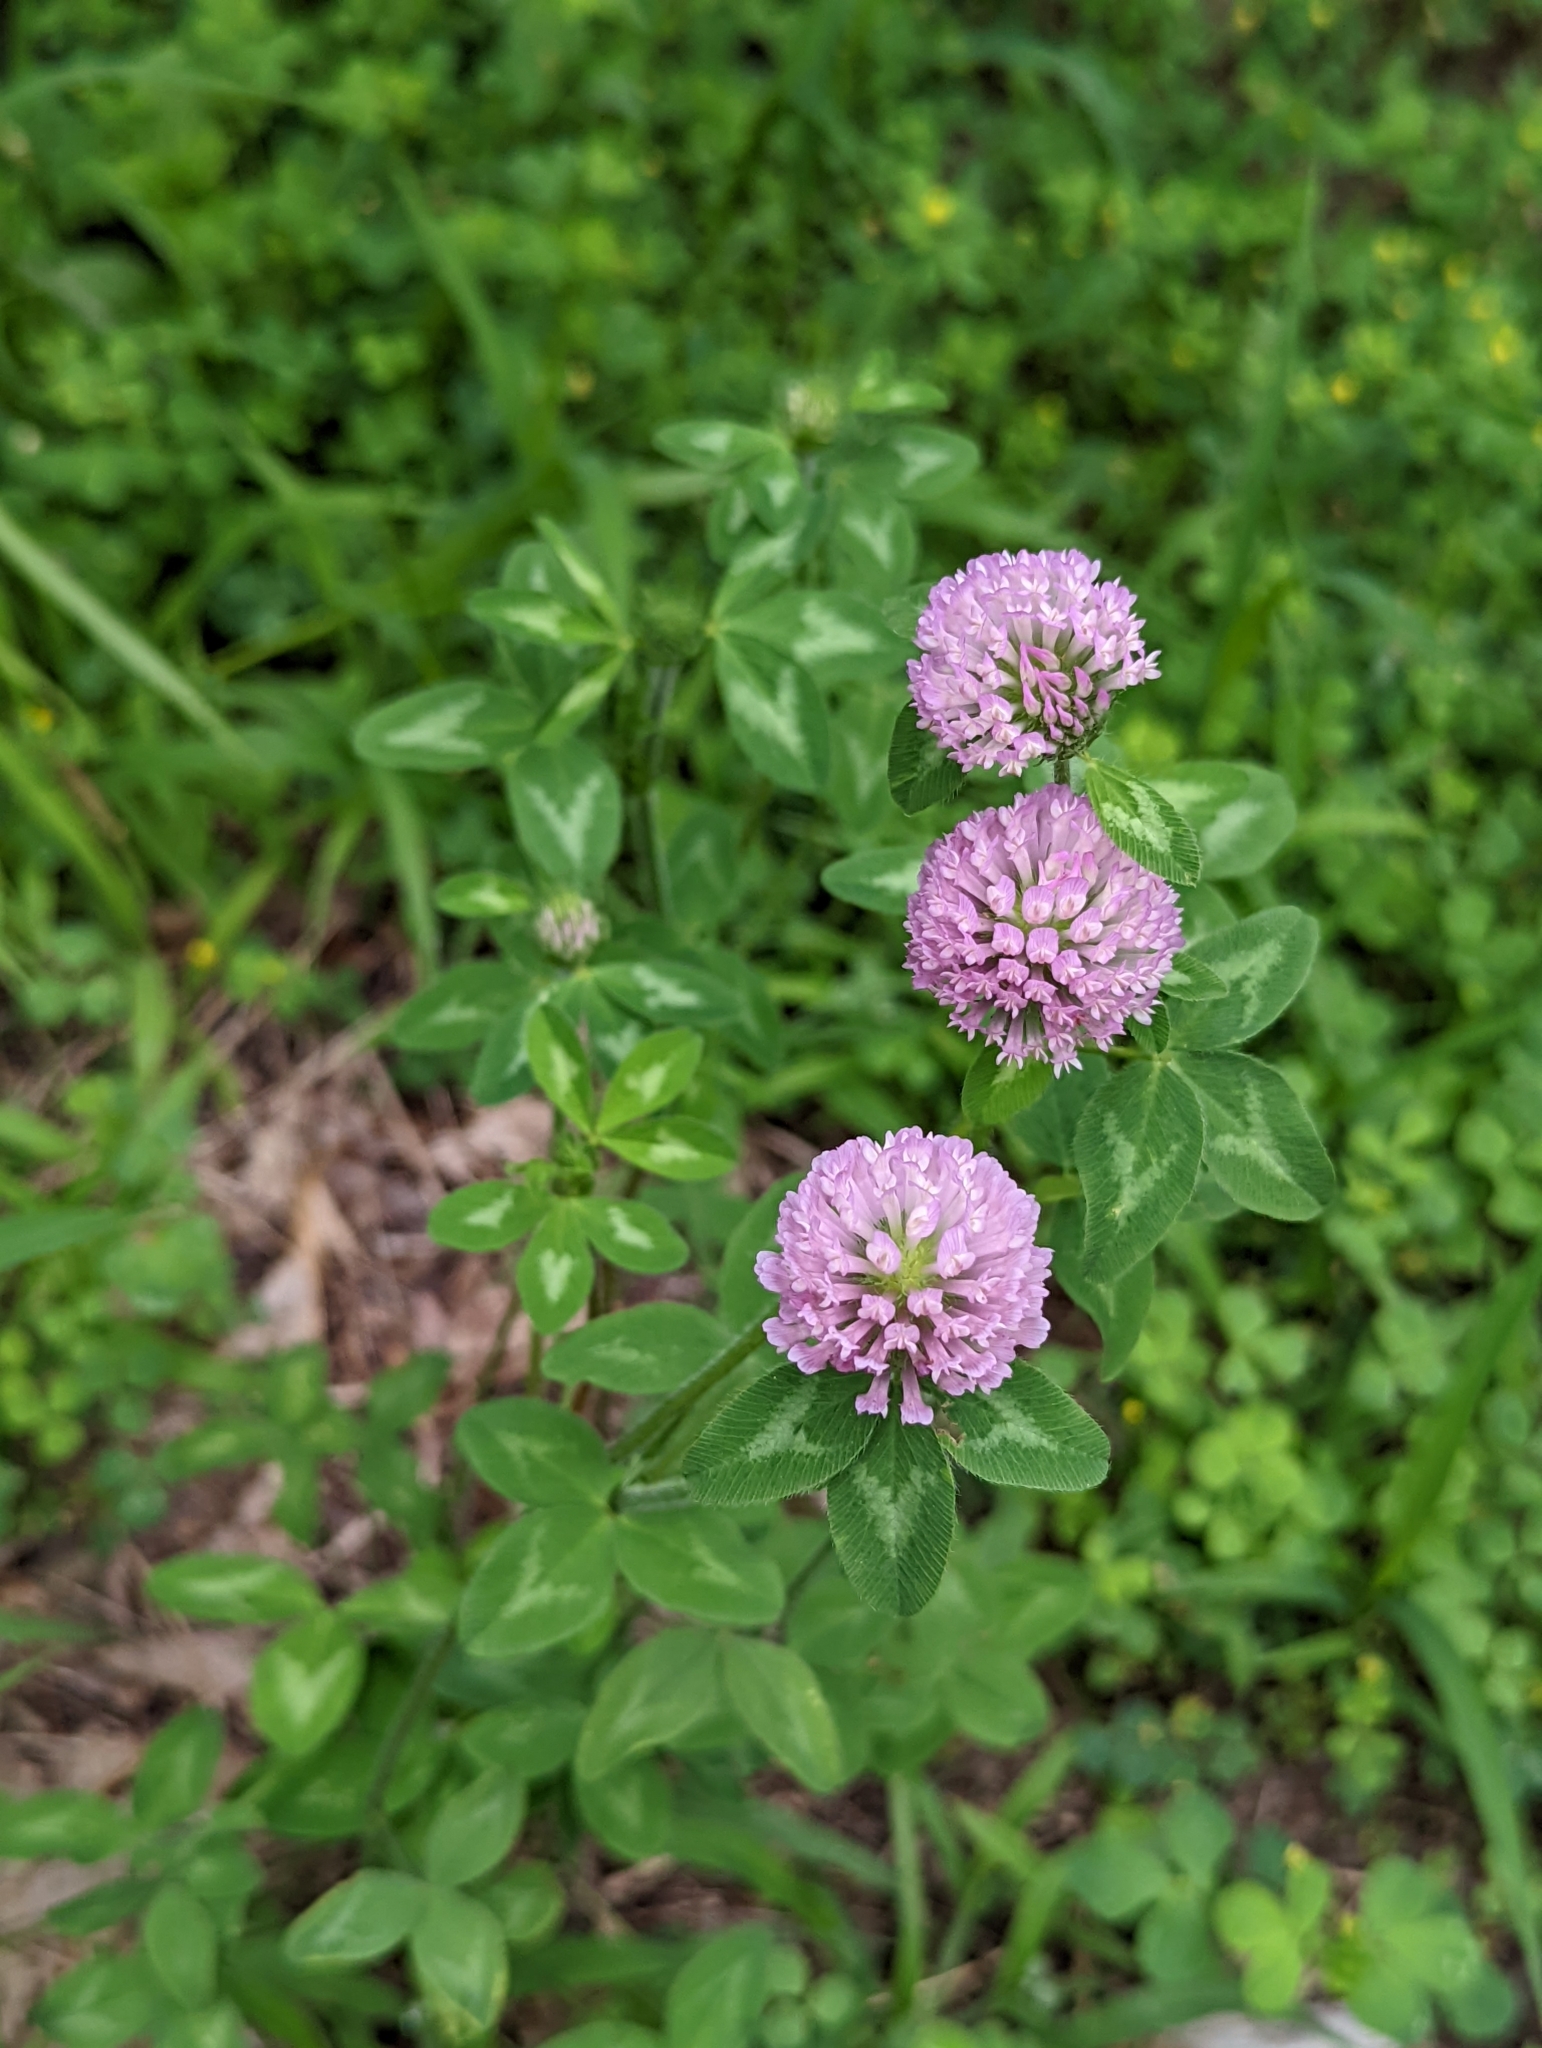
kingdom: Plantae
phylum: Tracheophyta
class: Magnoliopsida
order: Fabales
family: Fabaceae
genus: Trifolium
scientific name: Trifolium pratense
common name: Red clover
